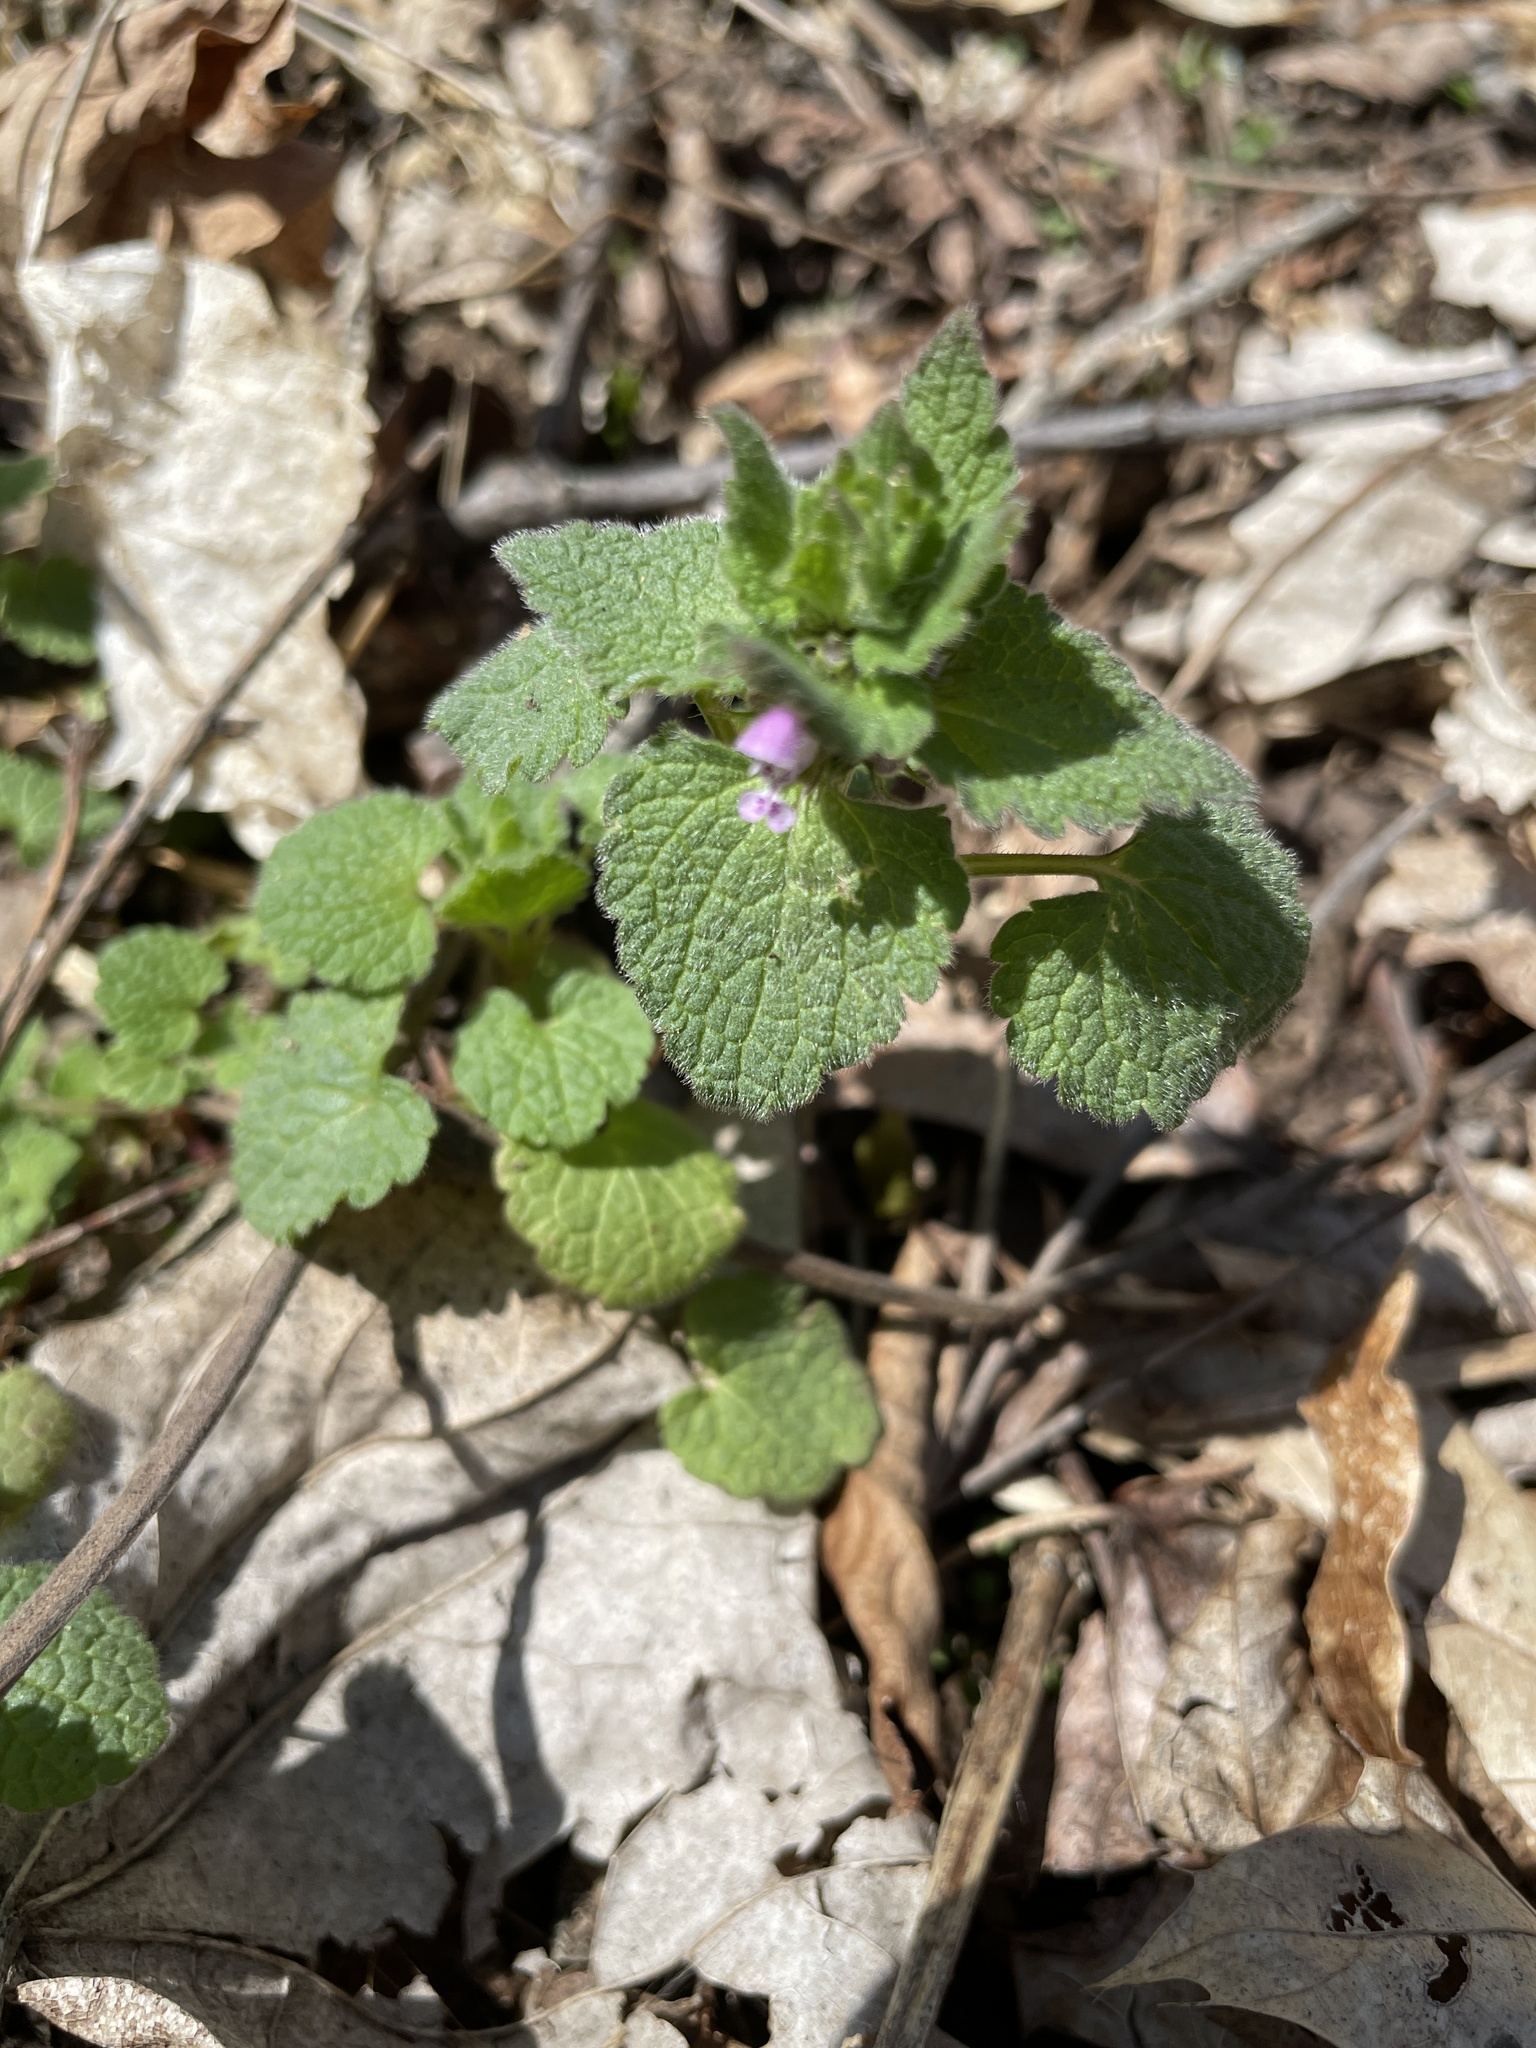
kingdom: Plantae
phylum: Tracheophyta
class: Magnoliopsida
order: Lamiales
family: Lamiaceae
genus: Lamium
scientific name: Lamium purpureum
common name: Red dead-nettle
